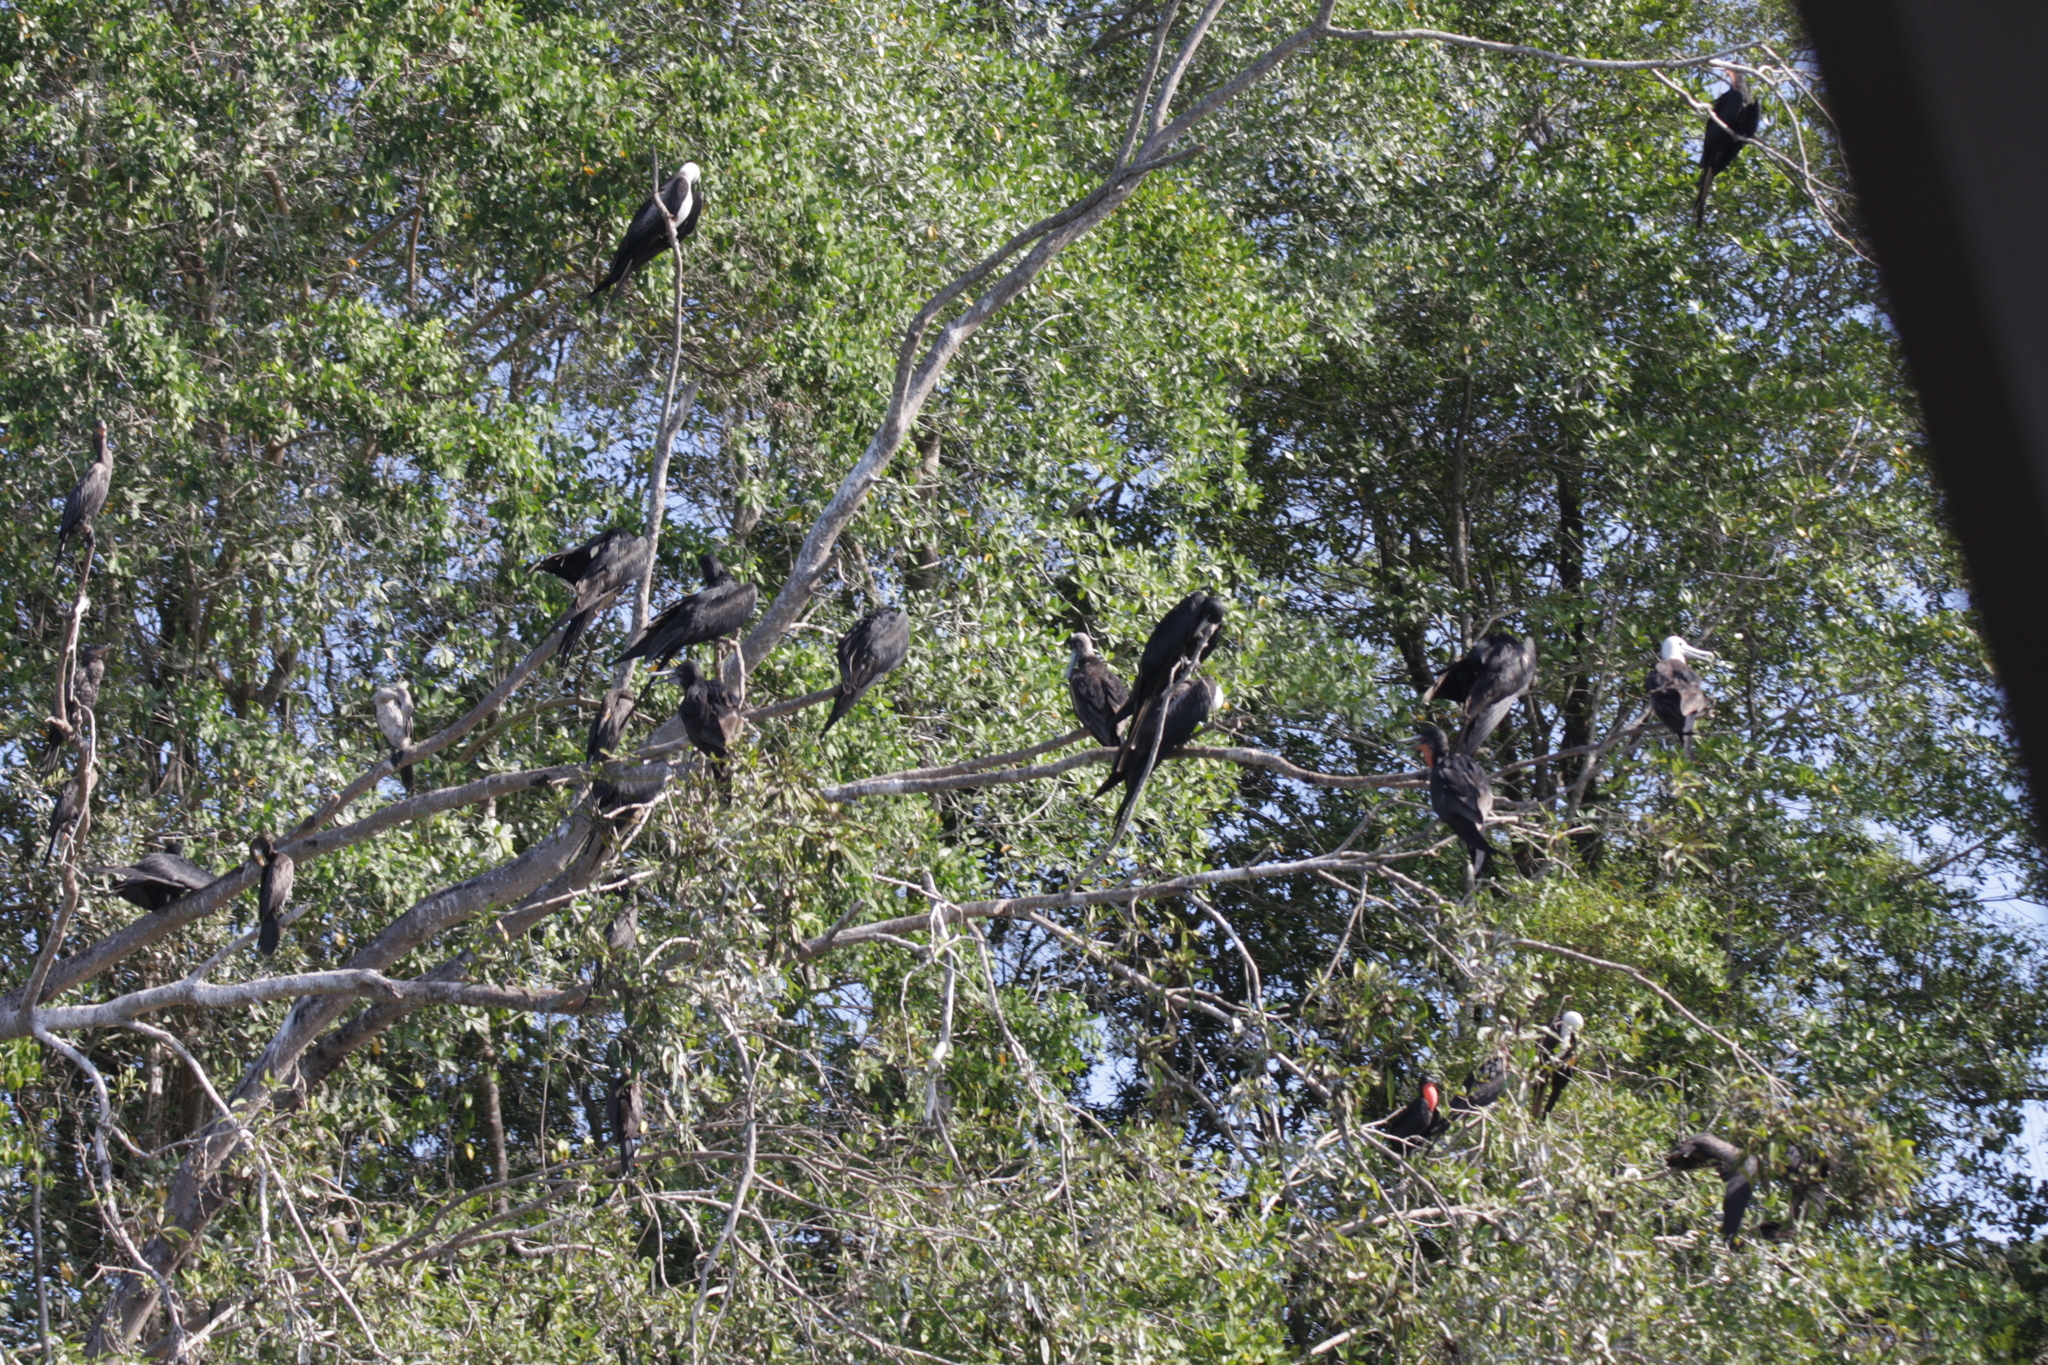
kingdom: Animalia
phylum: Chordata
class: Aves
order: Suliformes
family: Fregatidae
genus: Fregata
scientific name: Fregata magnificens
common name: Magnificent frigatebird
